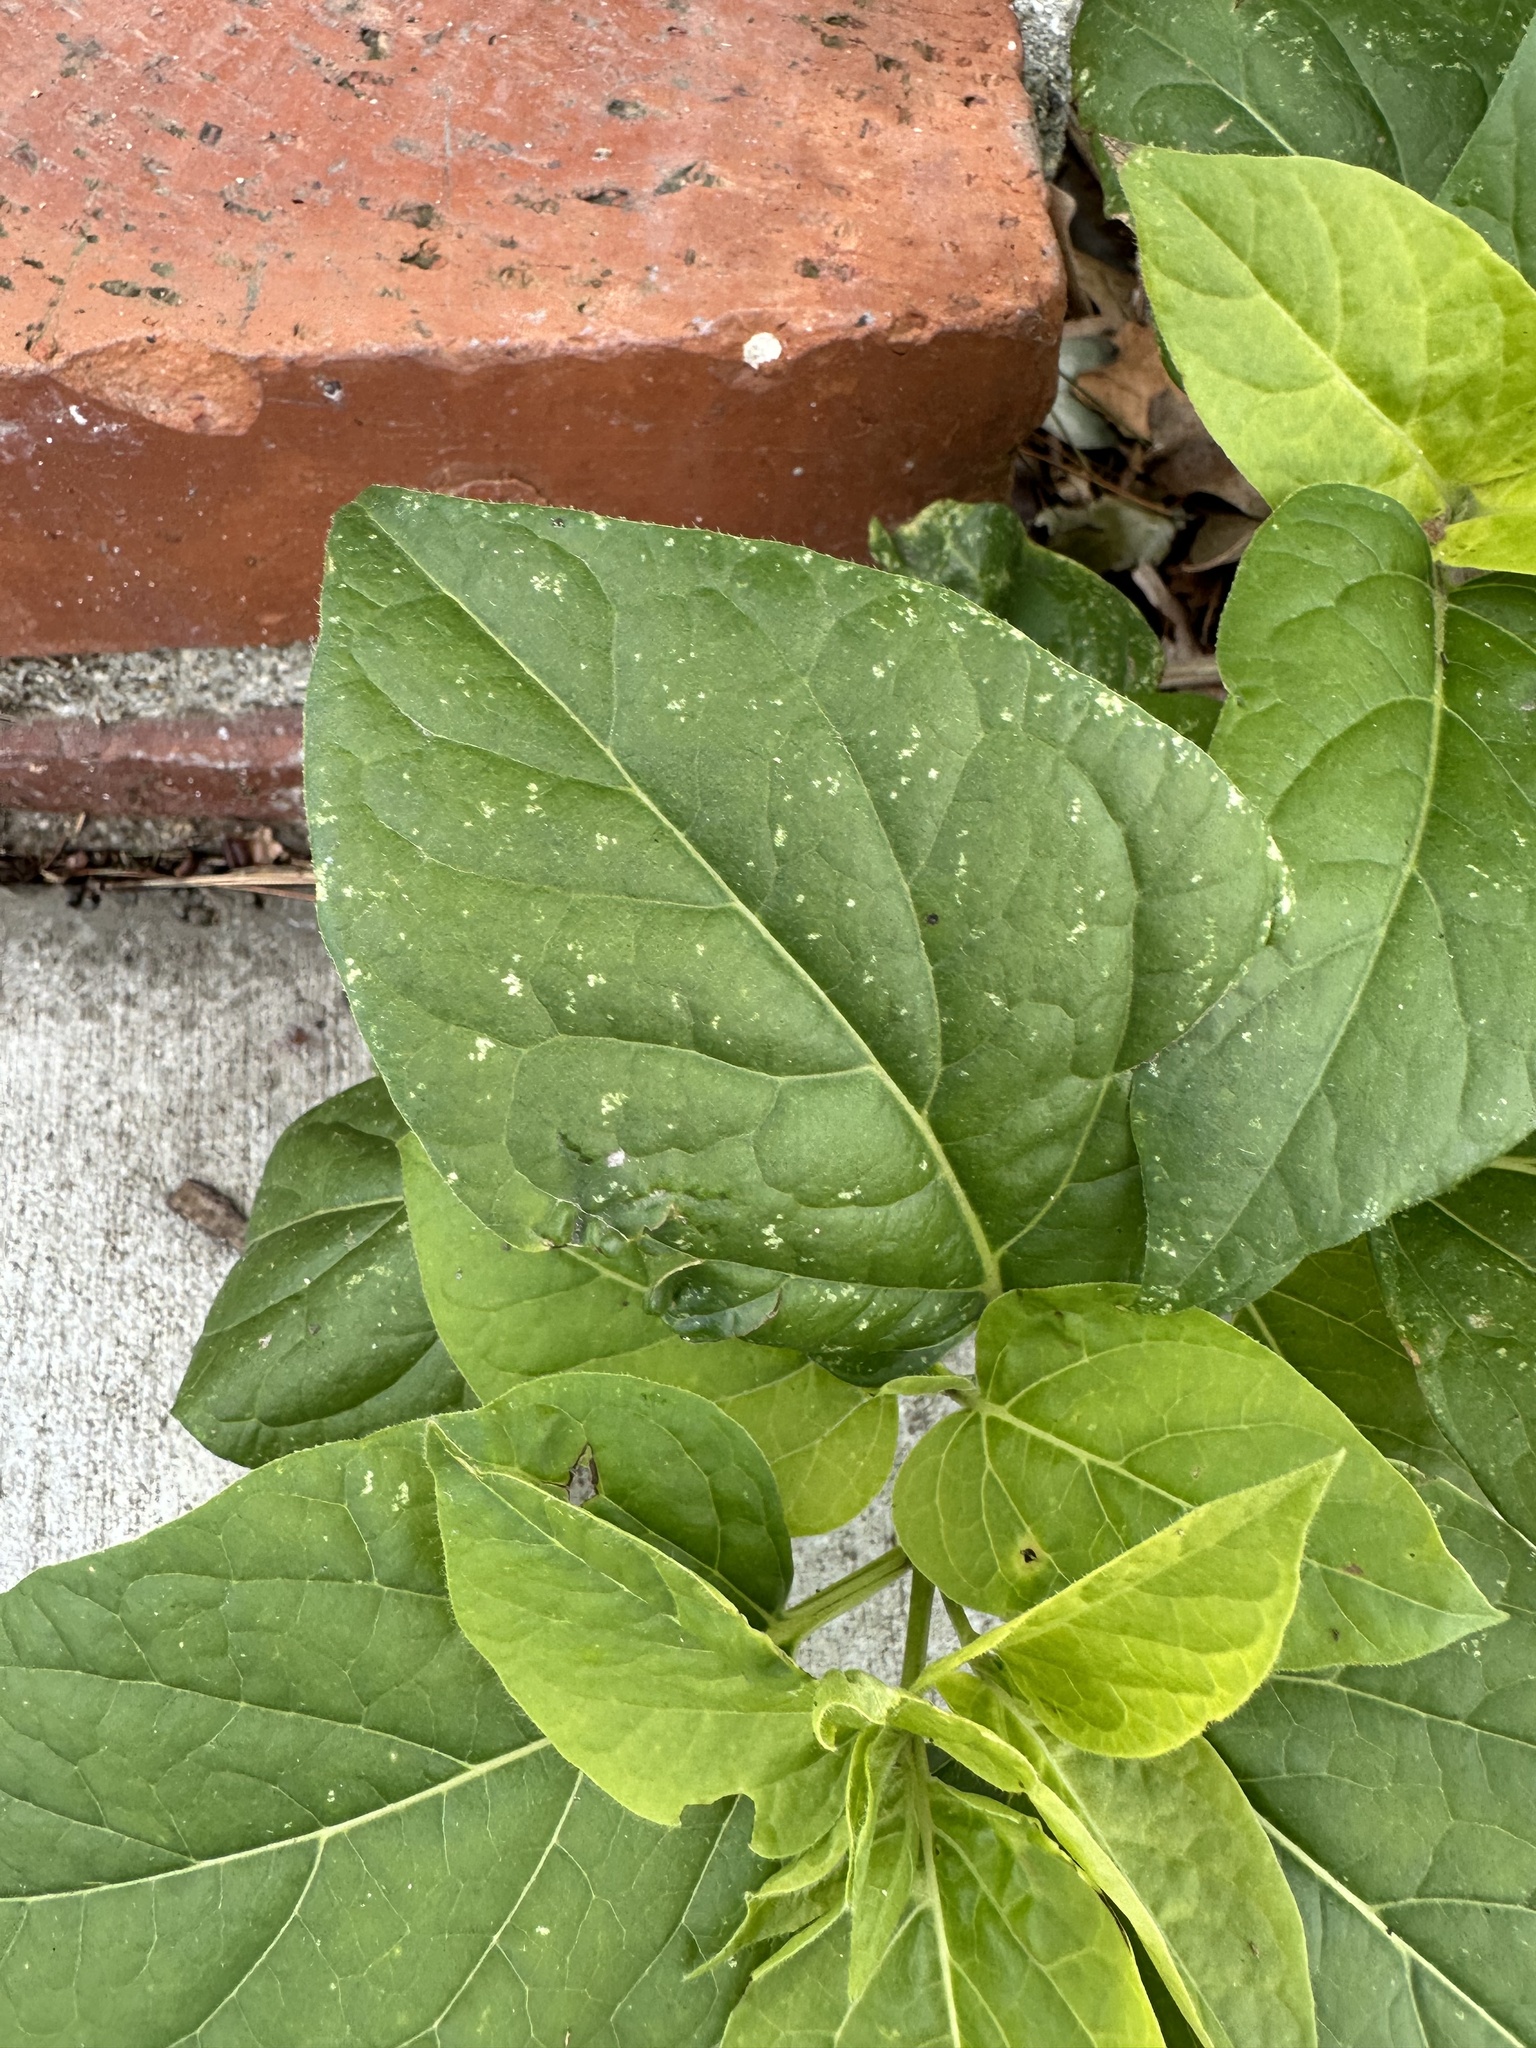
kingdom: Plantae
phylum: Tracheophyta
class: Magnoliopsida
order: Asterales
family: Asteraceae
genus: Helianthus
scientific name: Helianthus annuus
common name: Sunflower
